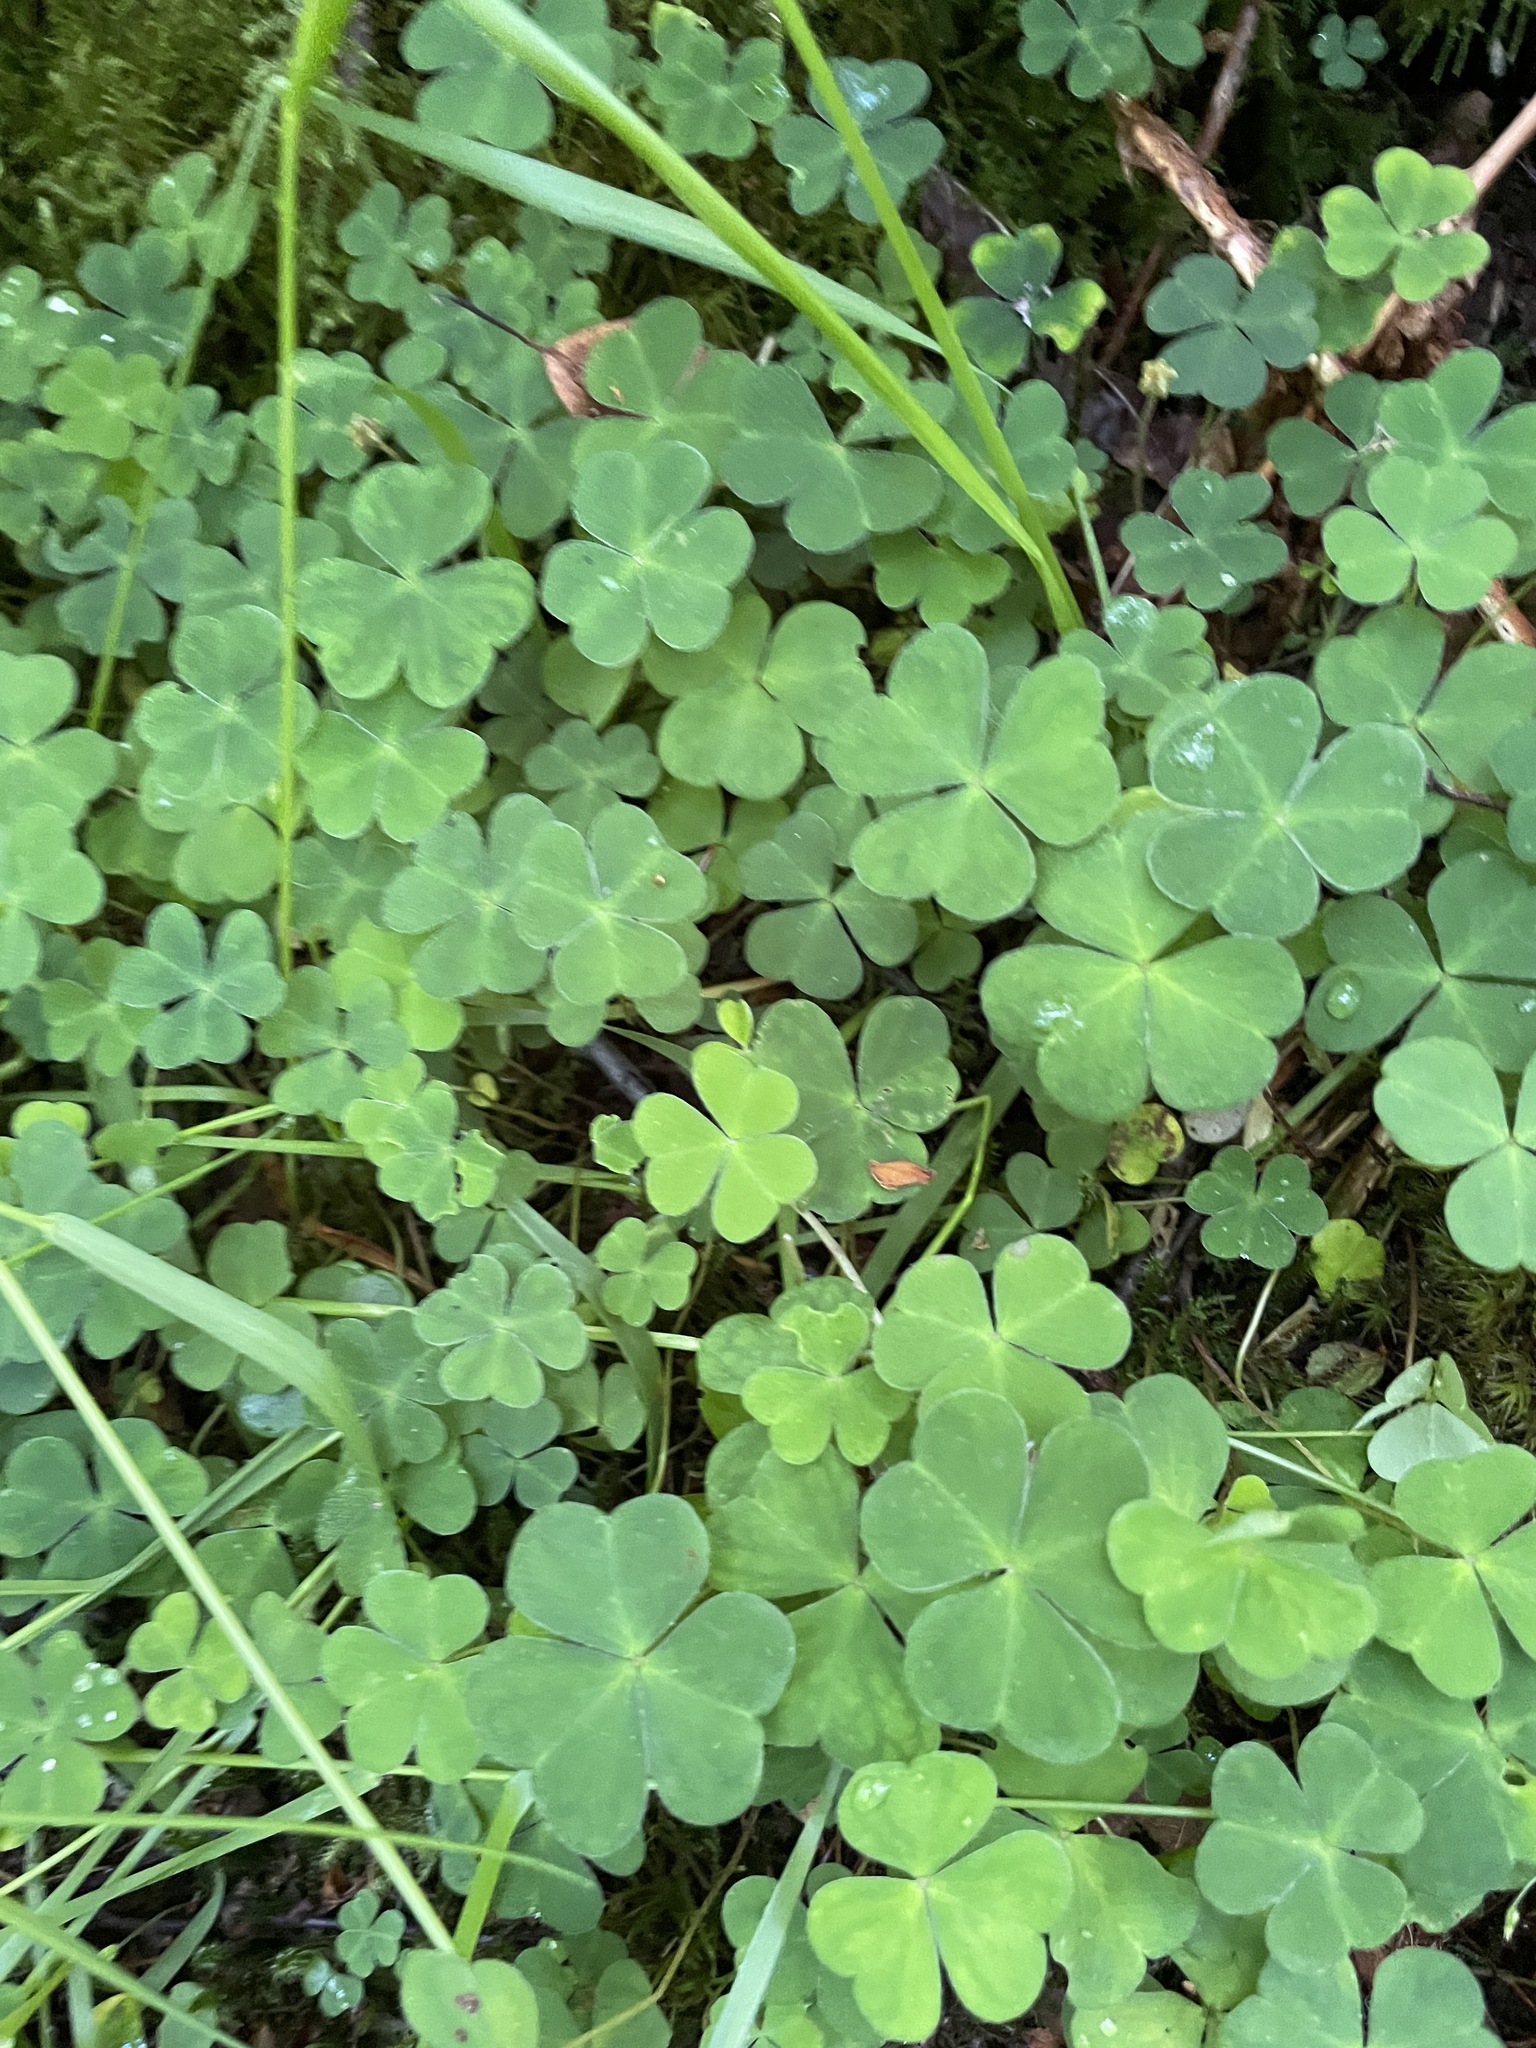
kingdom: Plantae
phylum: Tracheophyta
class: Magnoliopsida
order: Oxalidales
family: Oxalidaceae
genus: Oxalis
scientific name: Oxalis acetosella
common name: Wood-sorrel
